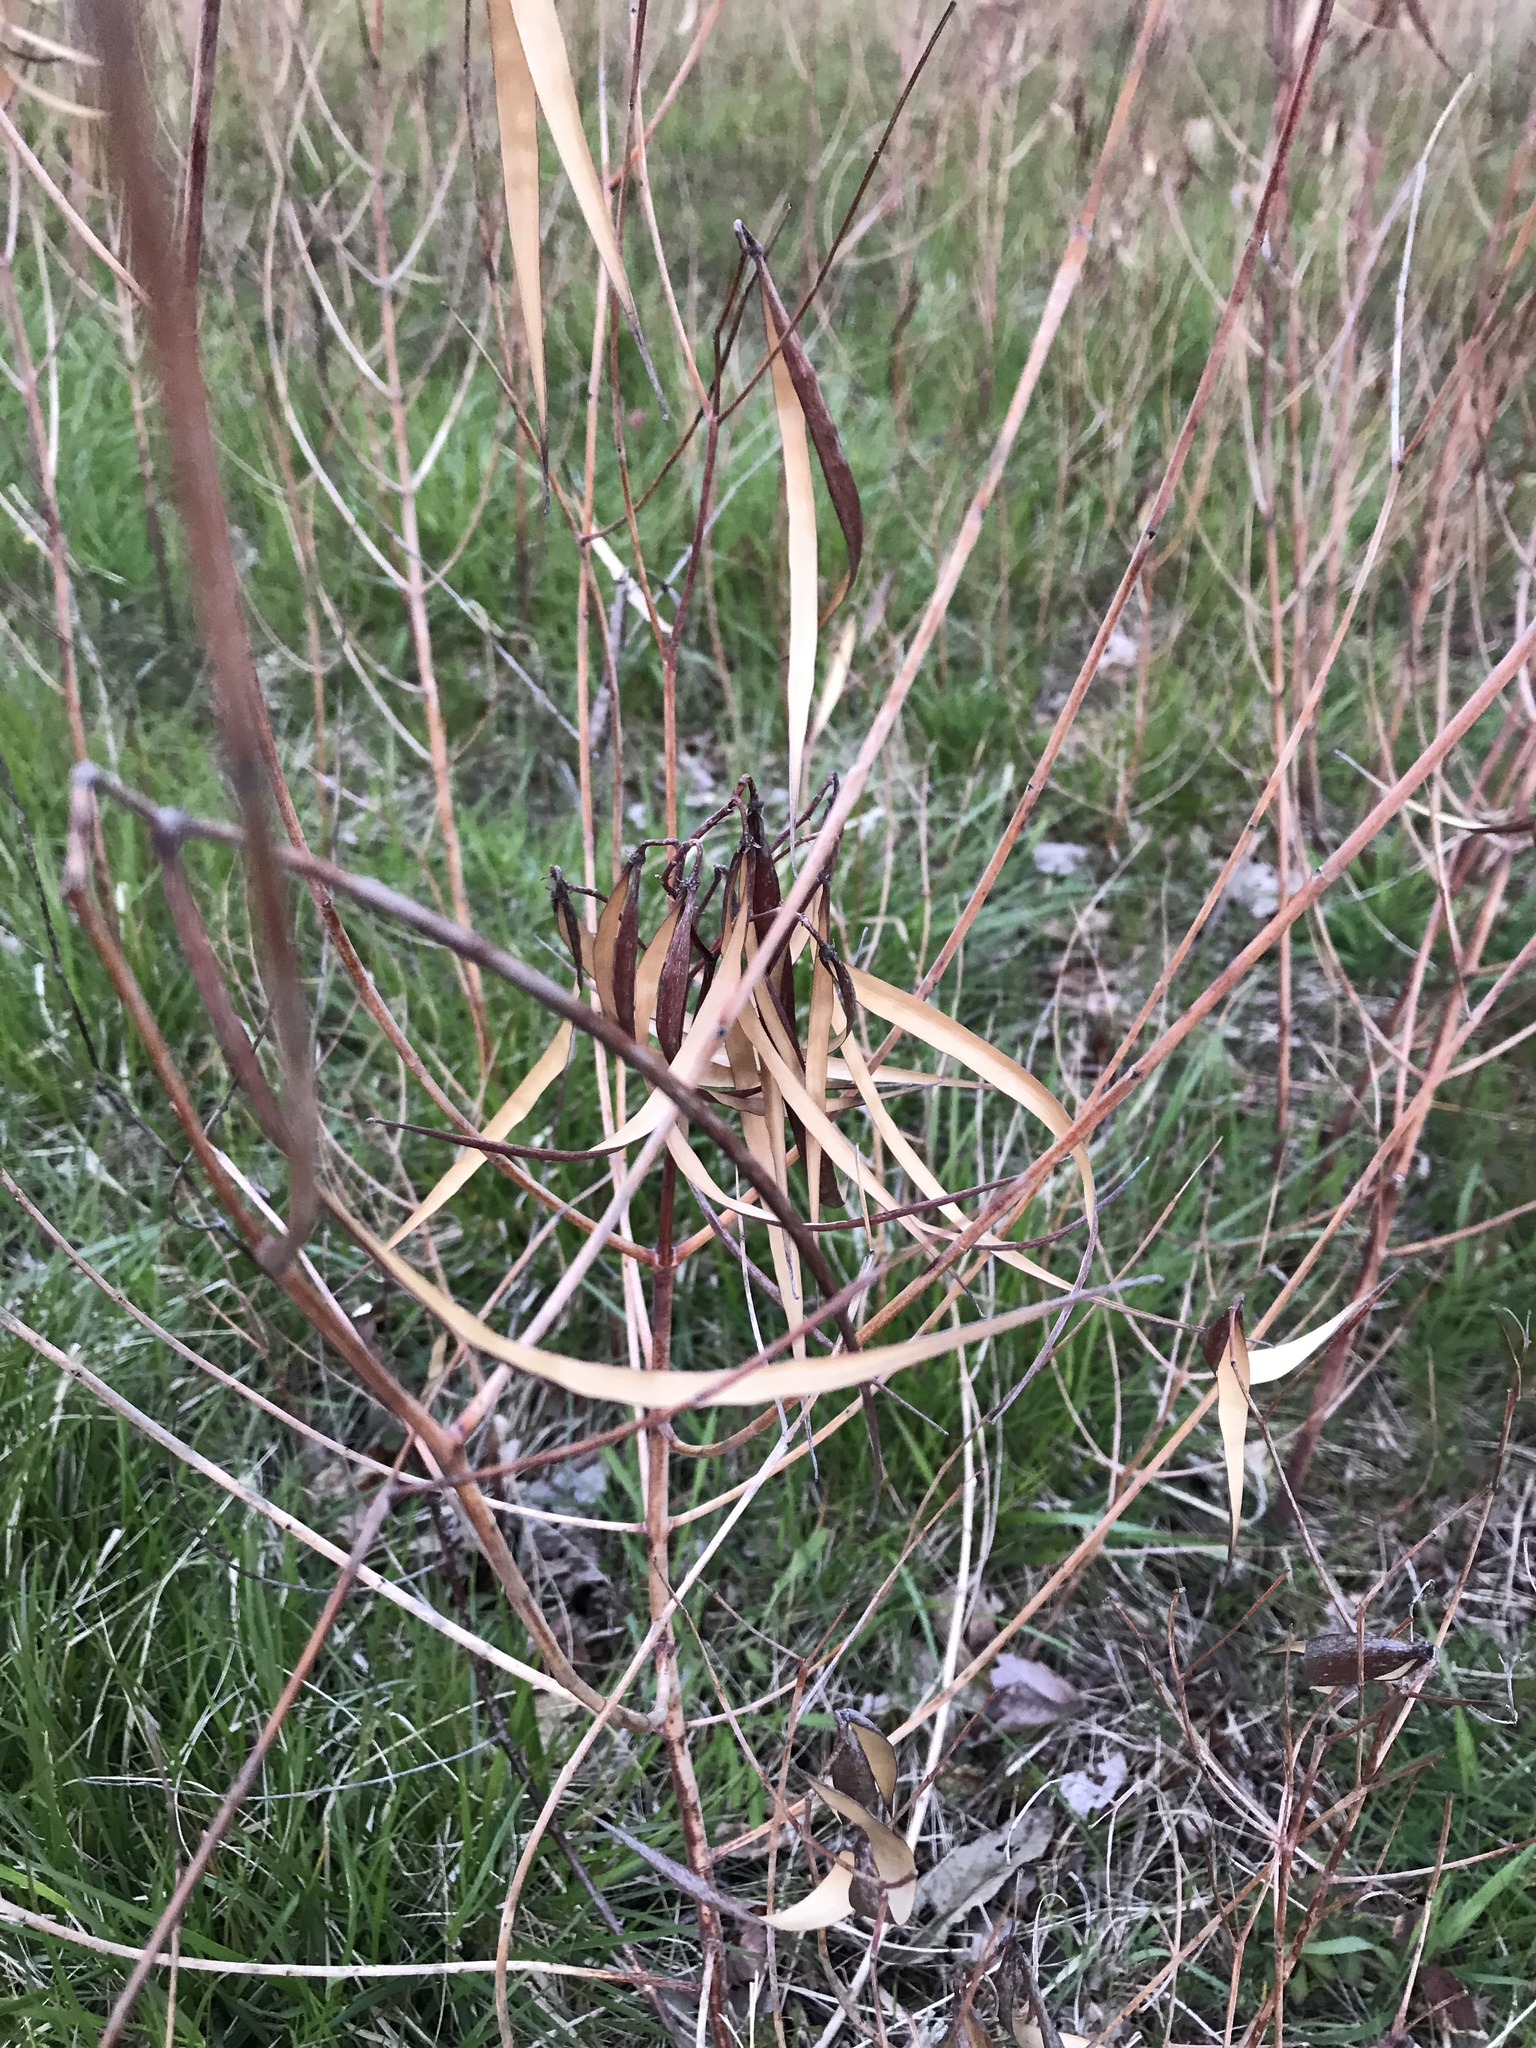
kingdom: Plantae
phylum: Tracheophyta
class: Magnoliopsida
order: Gentianales
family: Apocynaceae
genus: Apocynum
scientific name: Apocynum cannabinum
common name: Hemp dogbane
